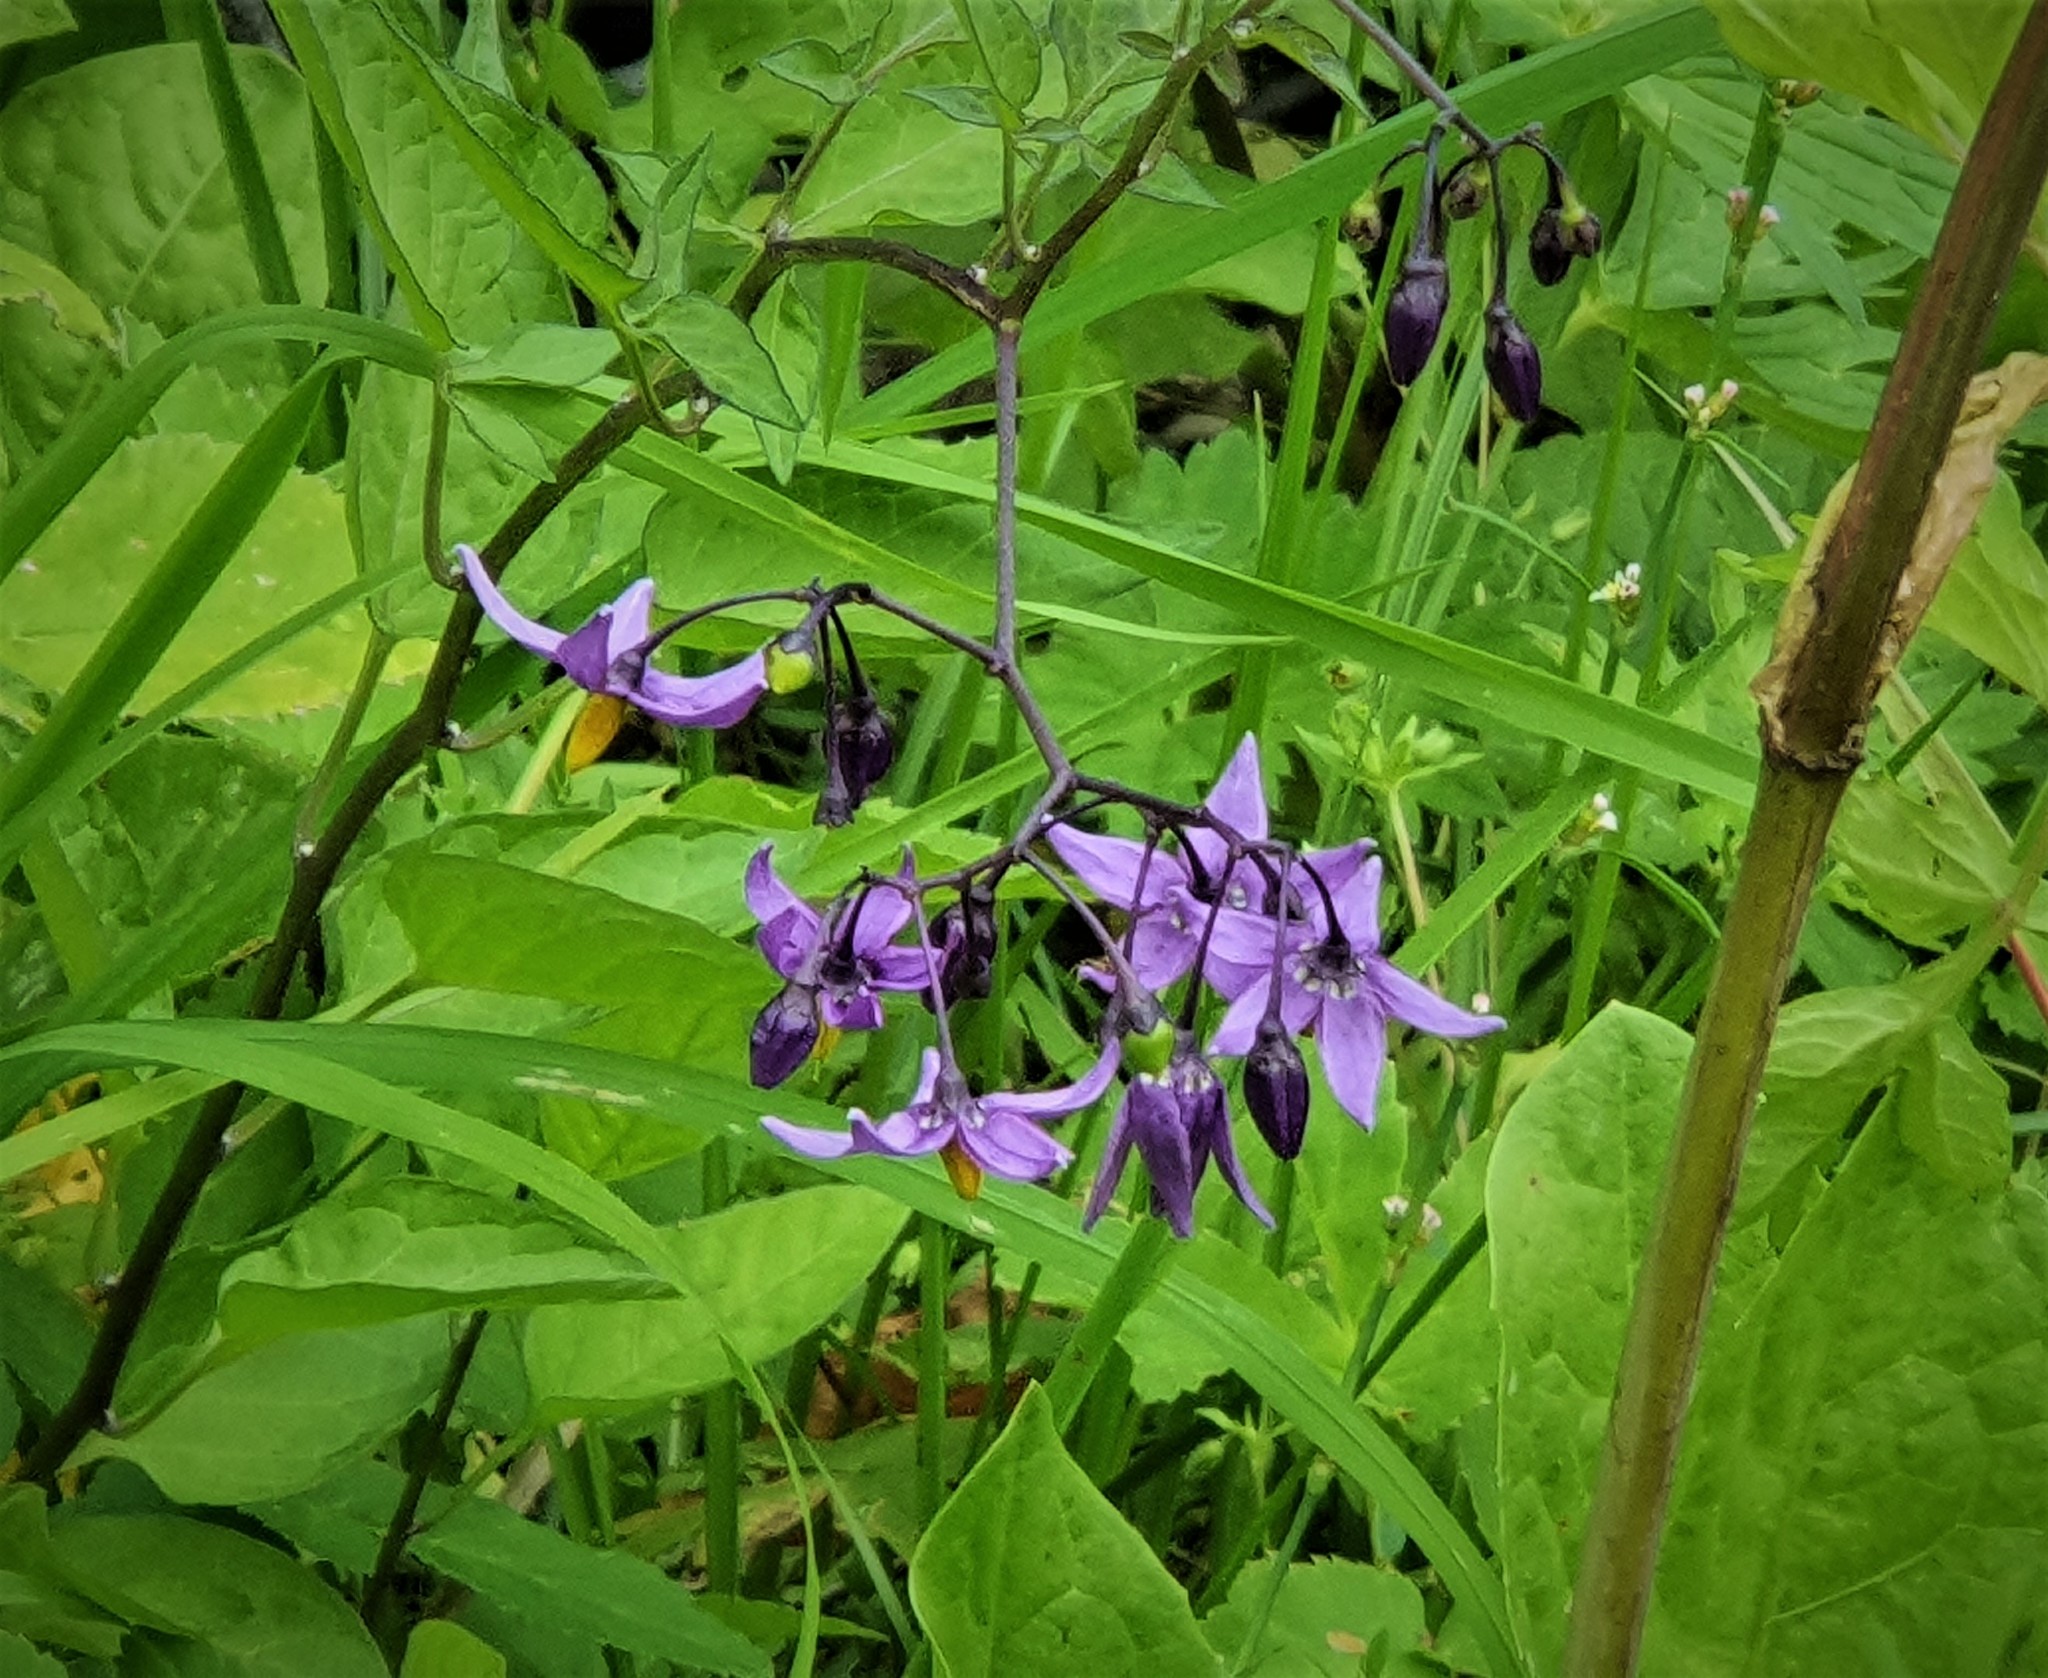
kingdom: Plantae
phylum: Tracheophyta
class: Magnoliopsida
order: Solanales
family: Solanaceae
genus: Solanum
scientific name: Solanum dulcamara
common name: Climbing nightshade
